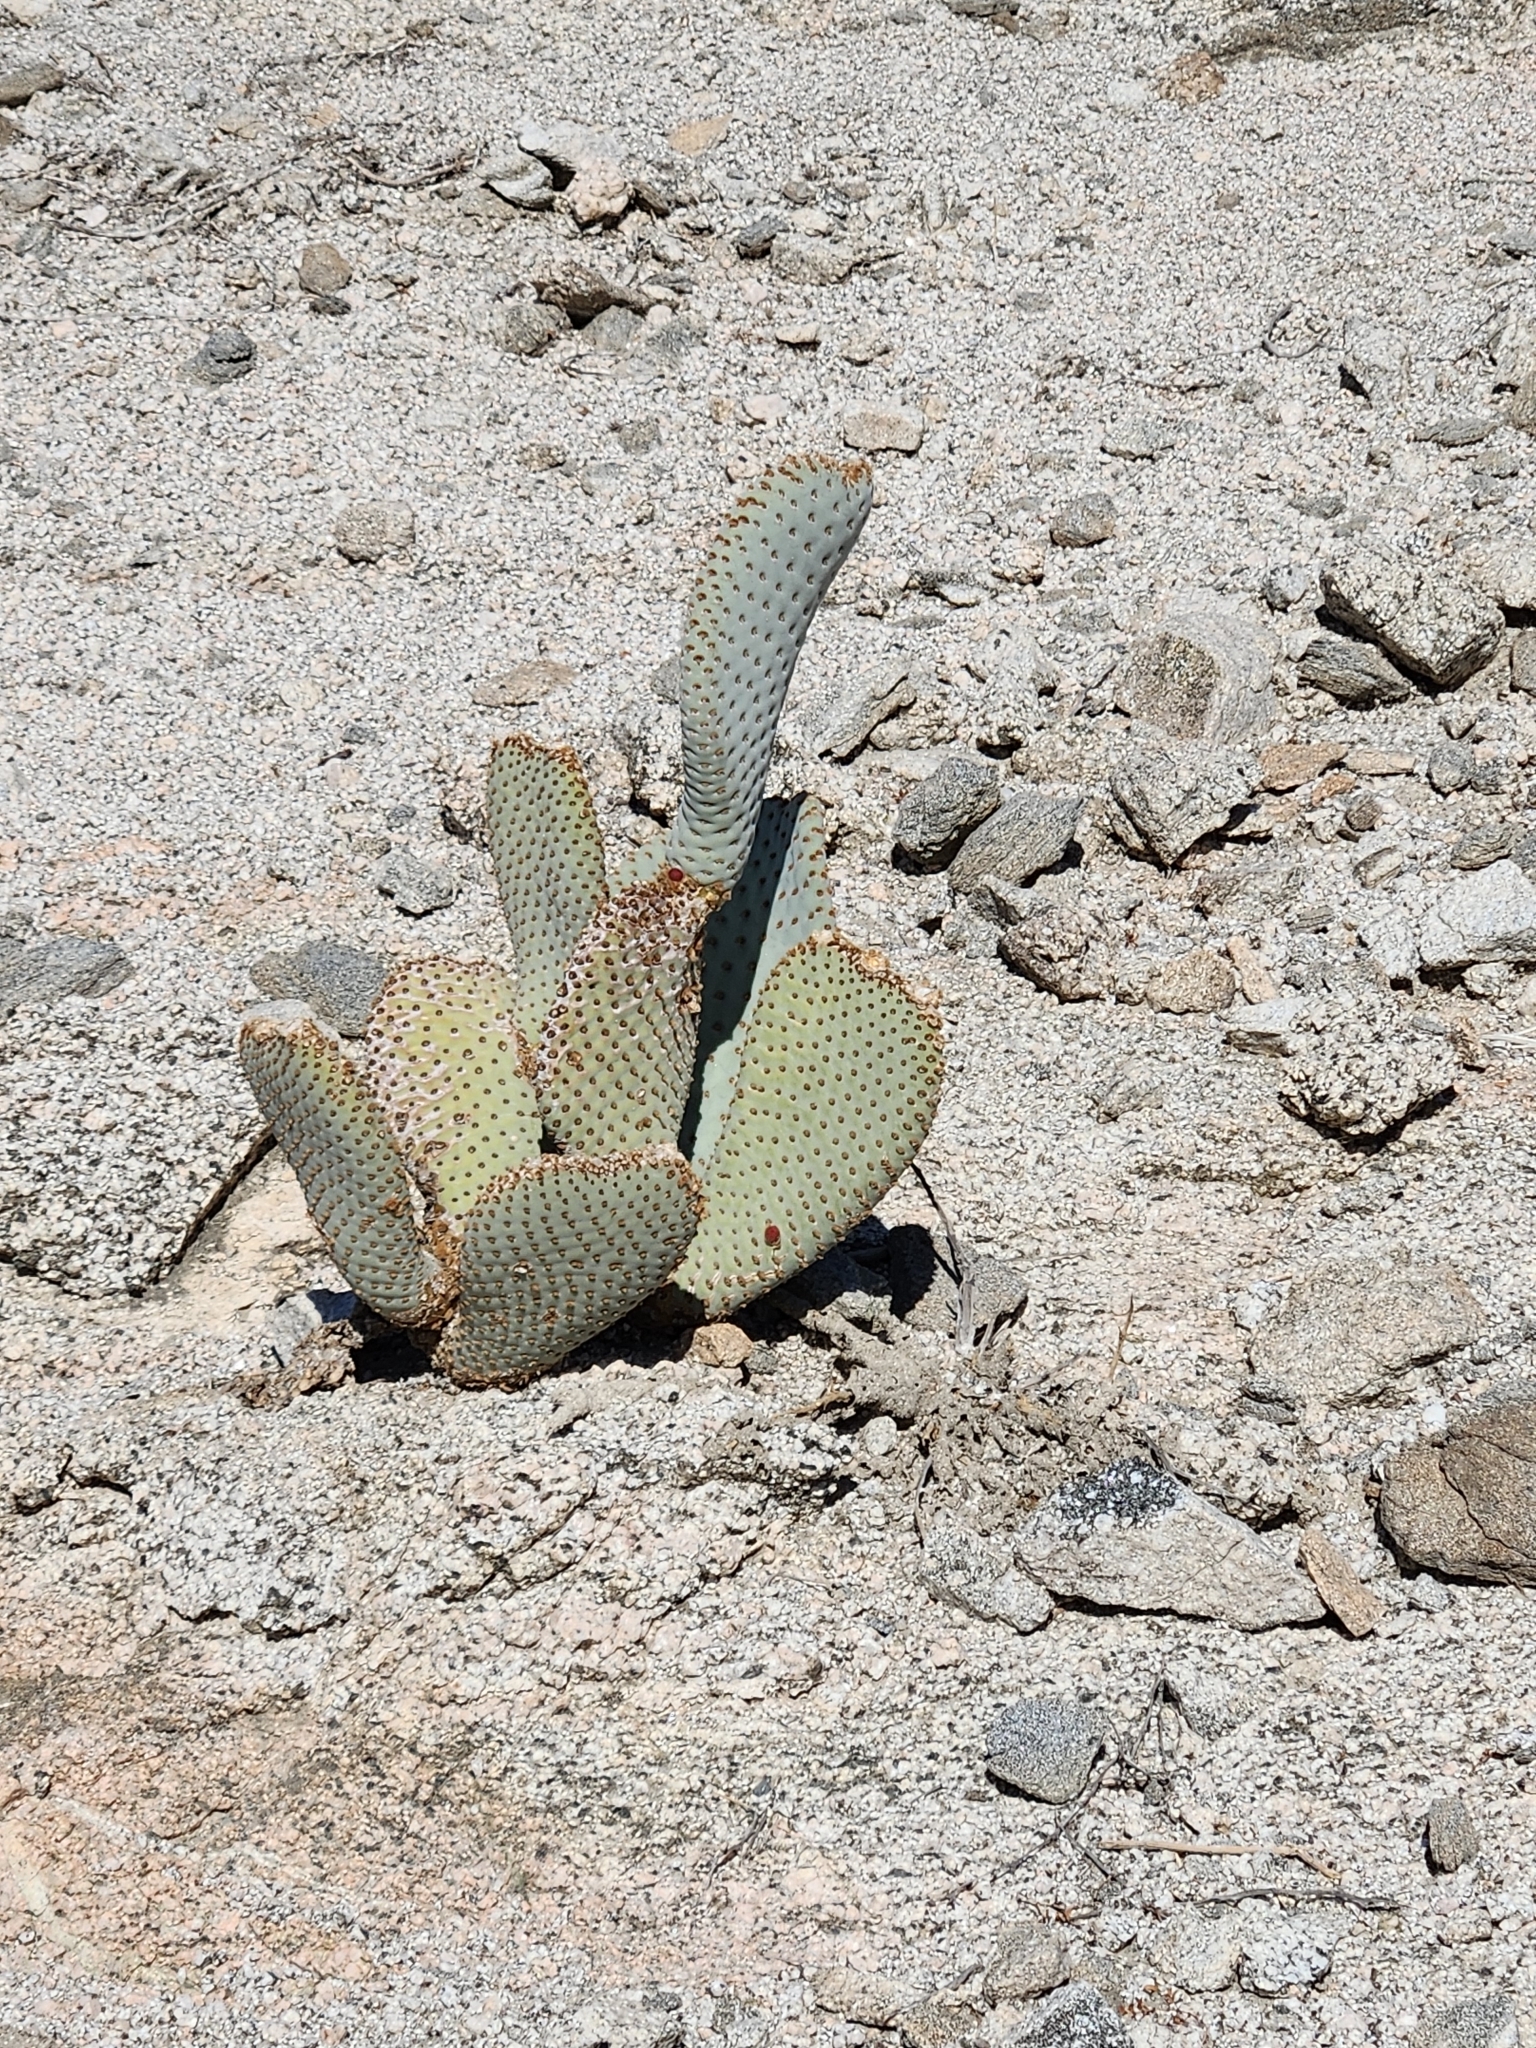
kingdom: Plantae
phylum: Tracheophyta
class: Magnoliopsida
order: Caryophyllales
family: Cactaceae
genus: Opuntia
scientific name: Opuntia basilaris
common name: Beavertail prickly-pear
